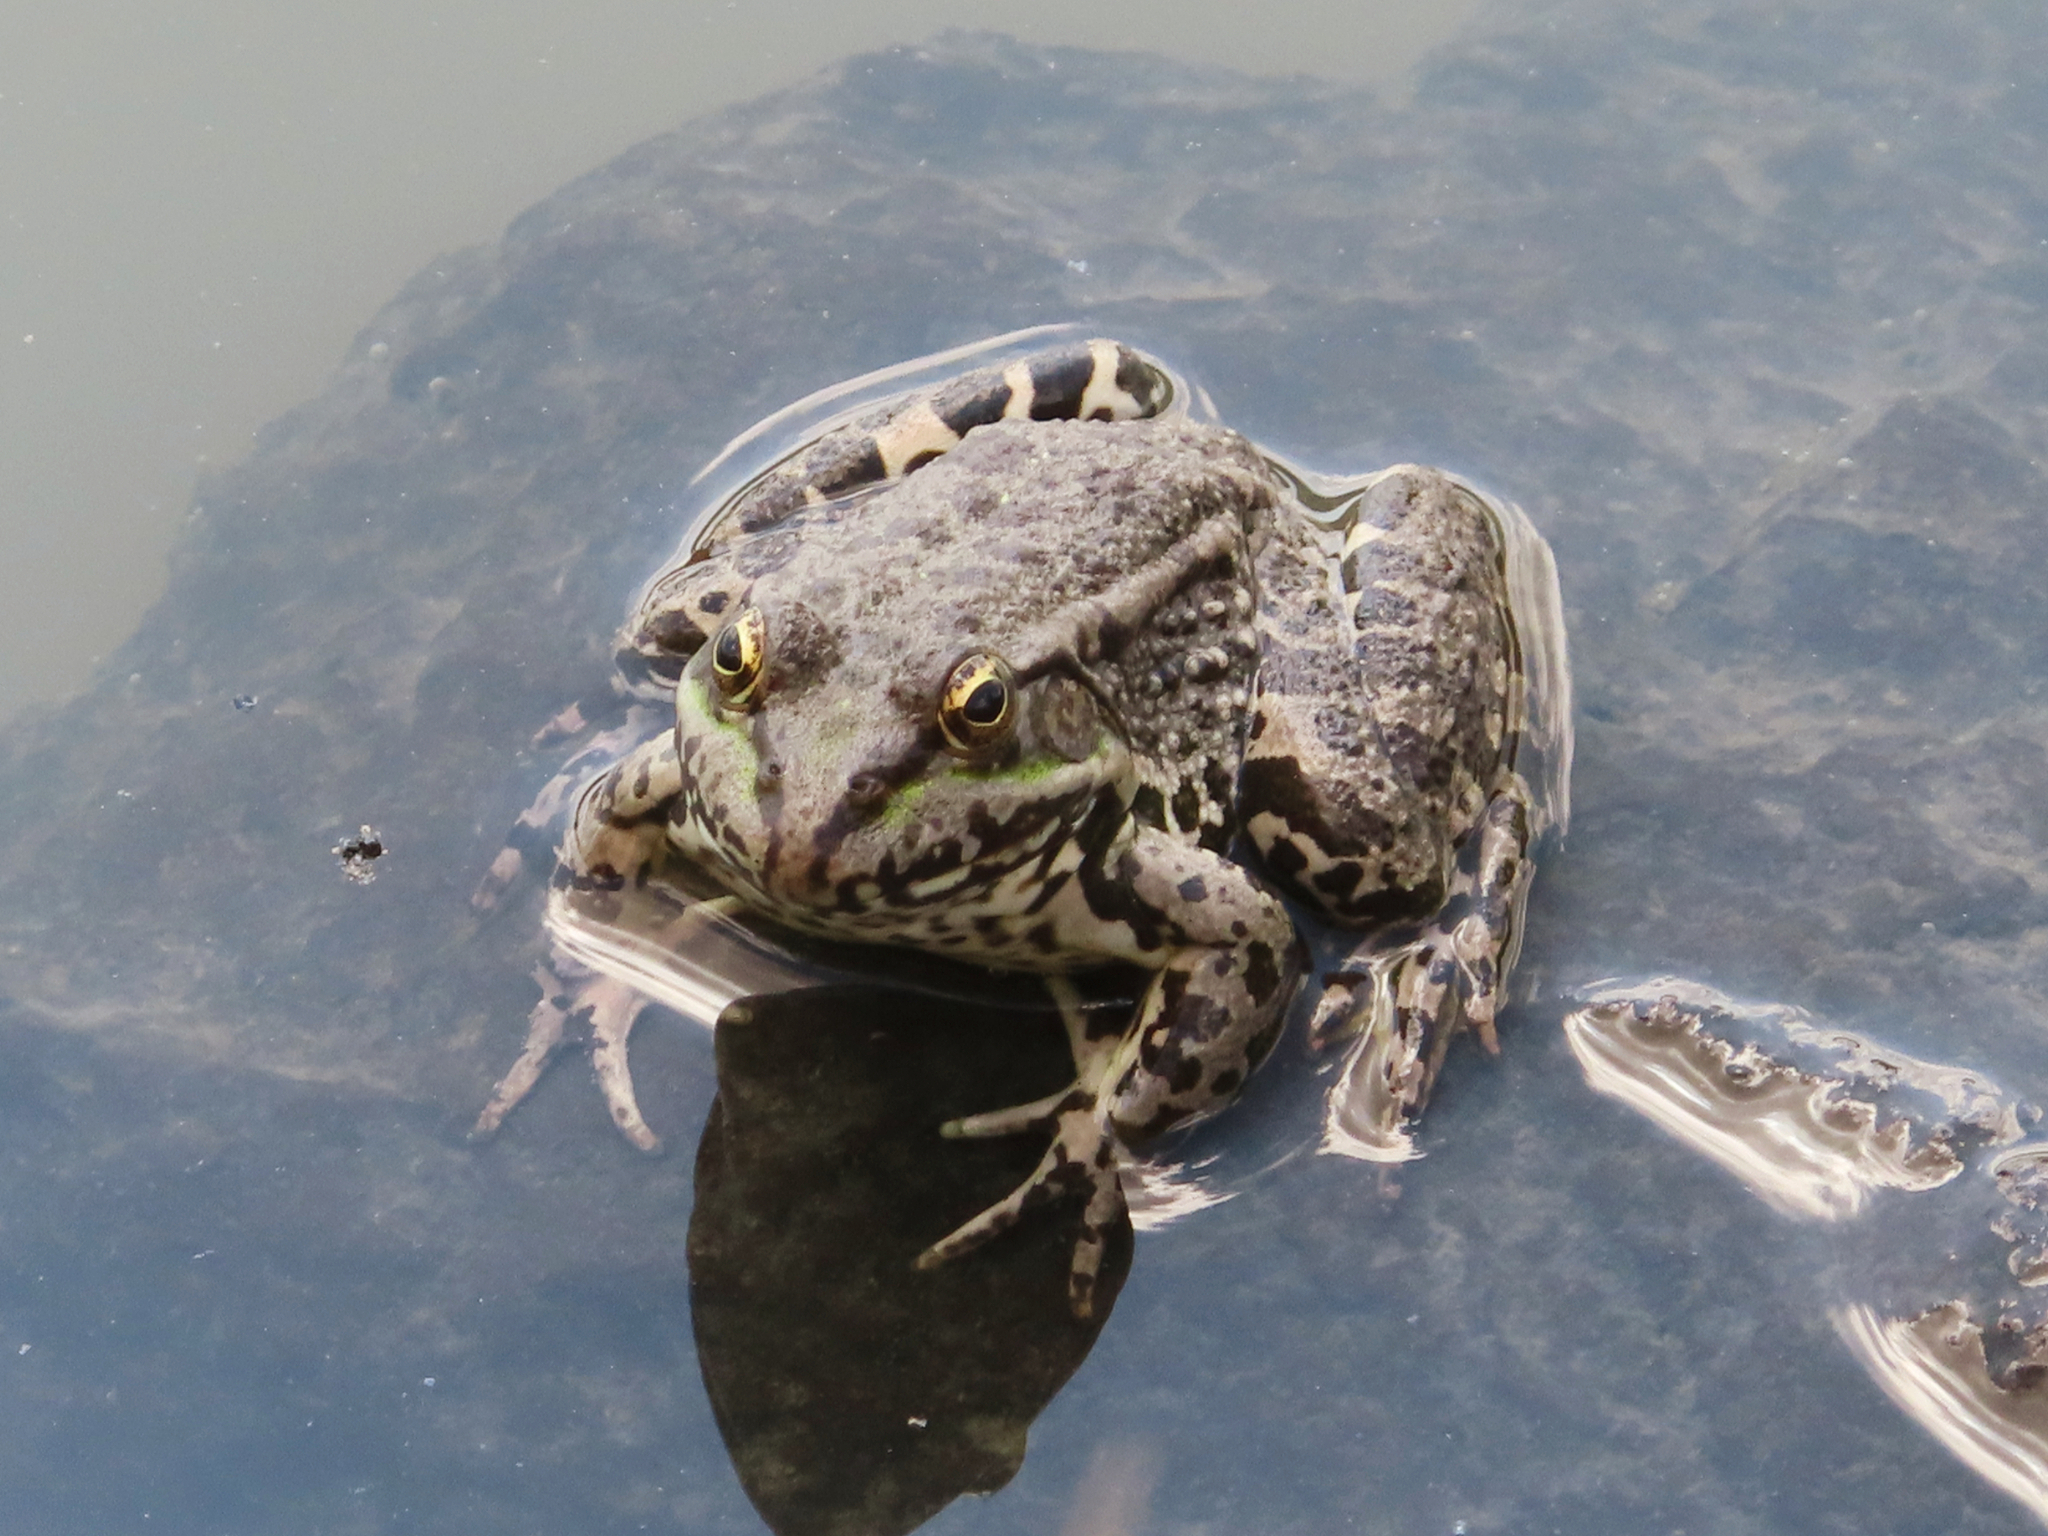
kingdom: Animalia
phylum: Chordata
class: Amphibia
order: Anura
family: Ranidae
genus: Pelophylax
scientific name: Pelophylax ridibundus
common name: Marsh frog
